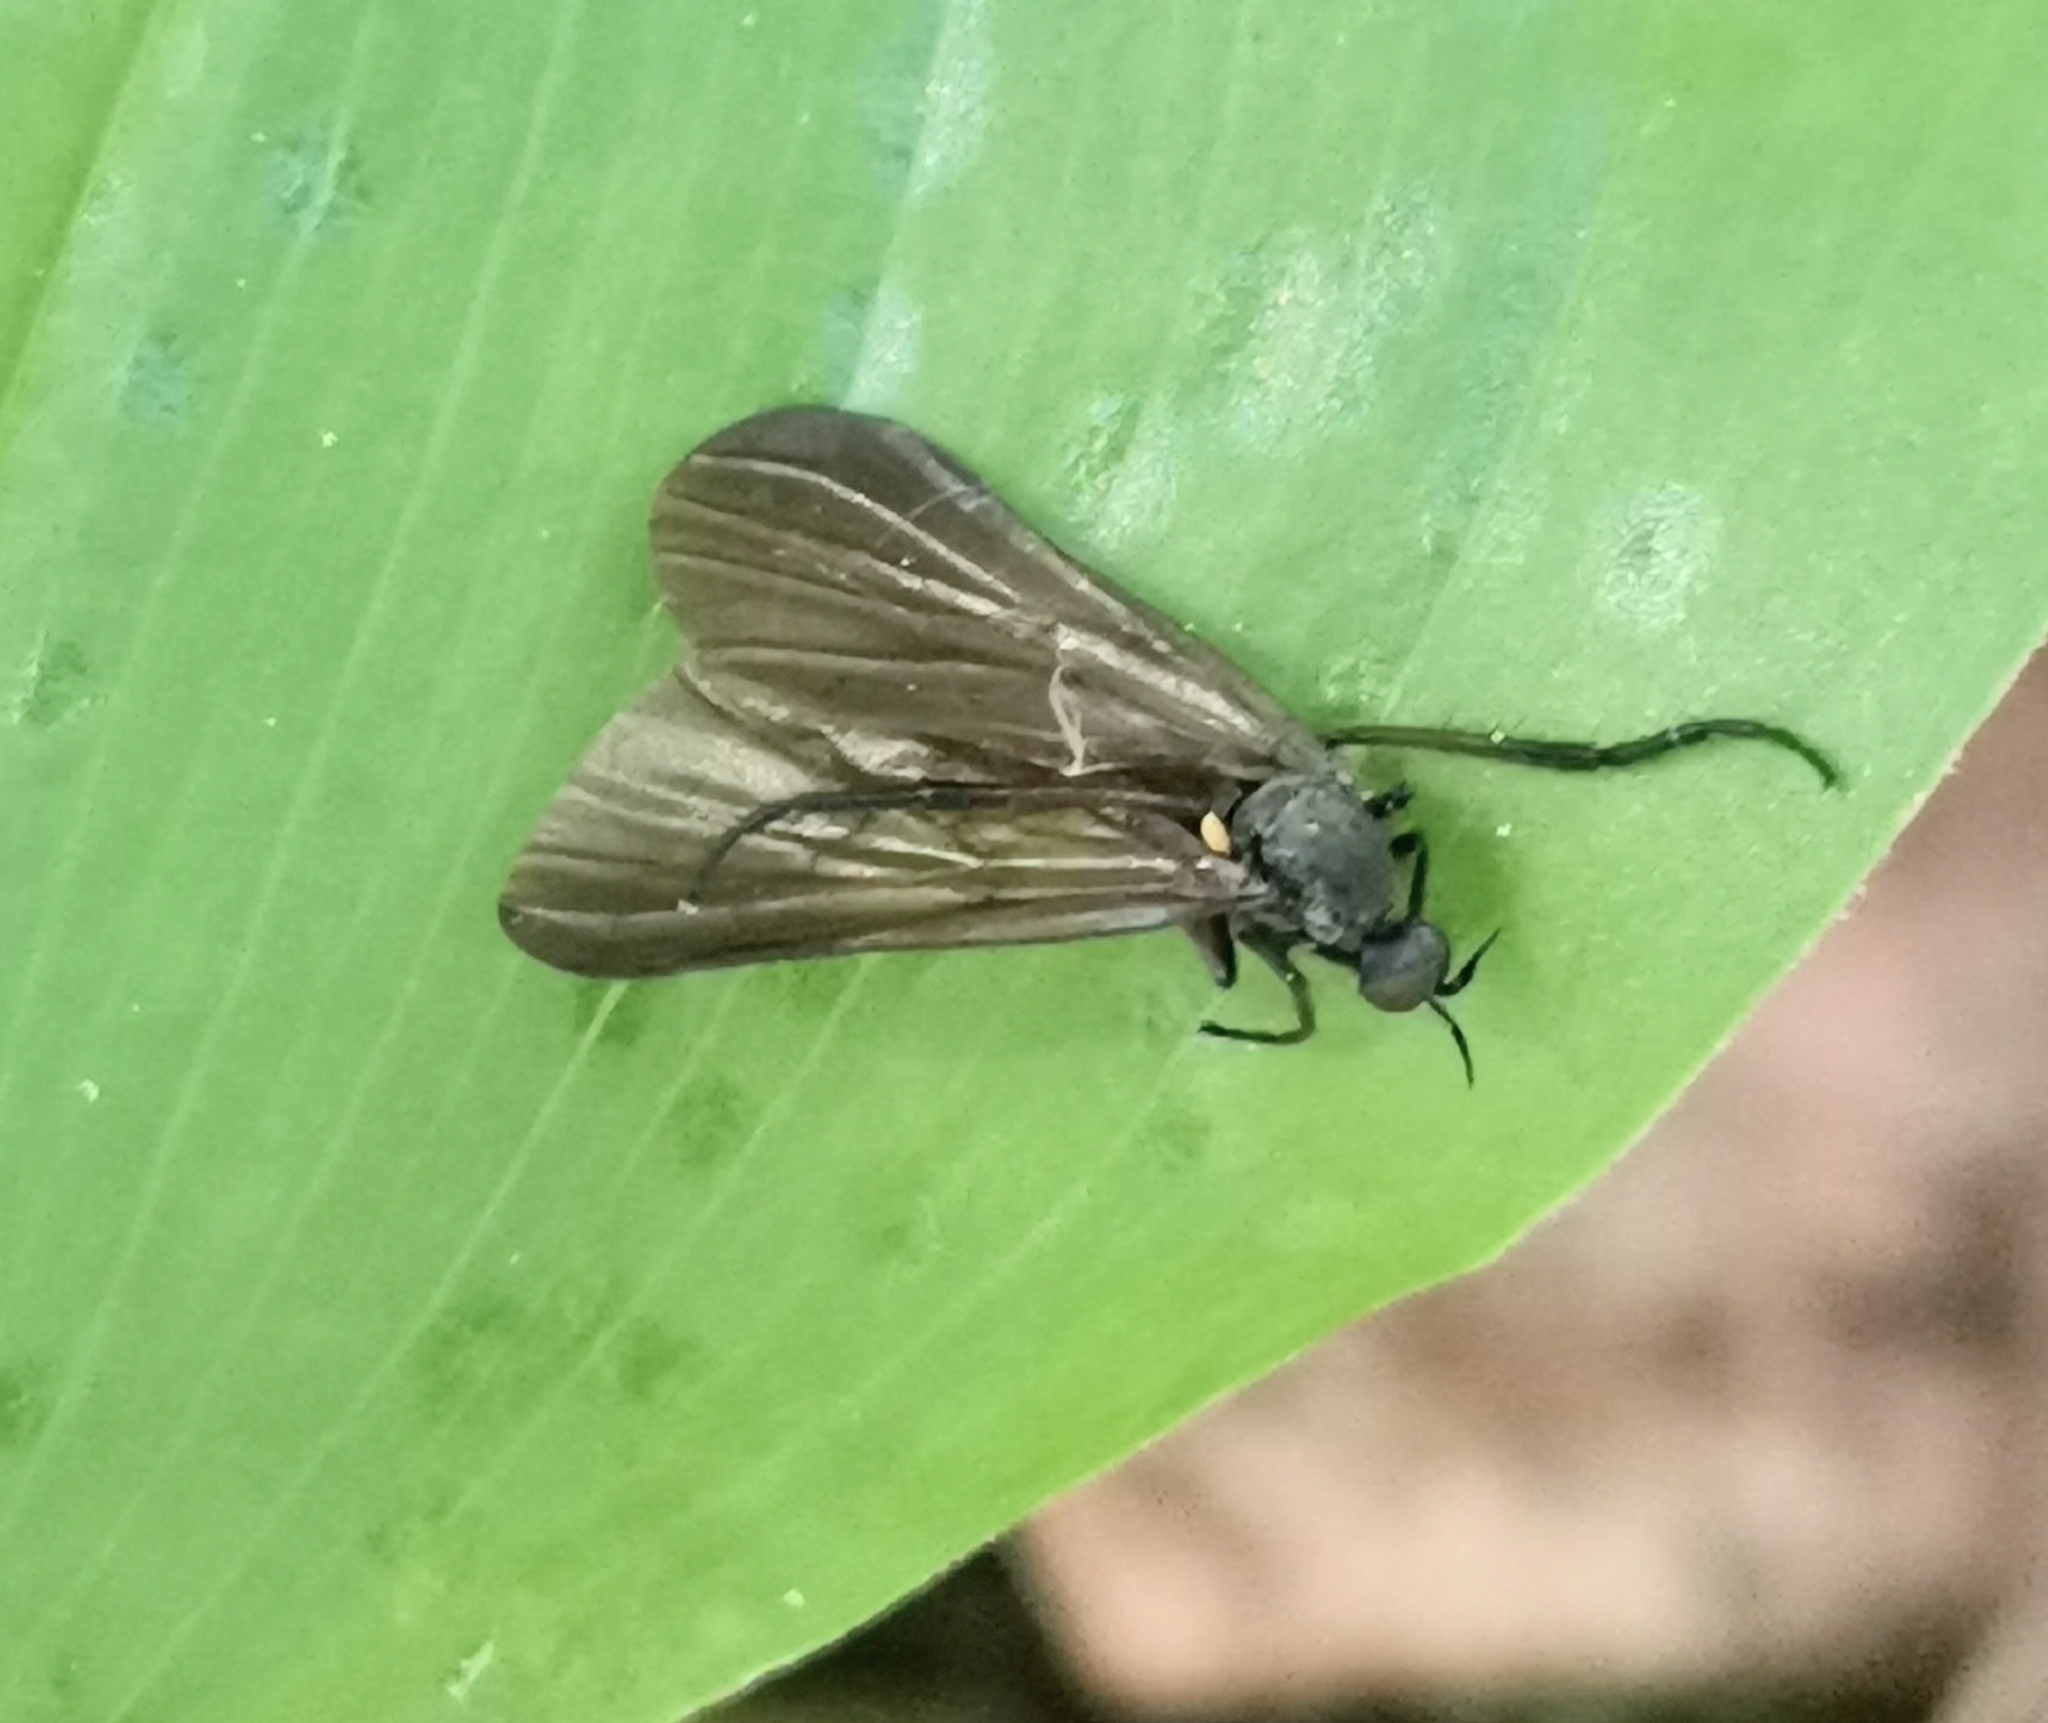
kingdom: Animalia
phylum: Arthropoda
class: Insecta
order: Diptera
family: Empididae
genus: Empis
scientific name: Empis borealis
